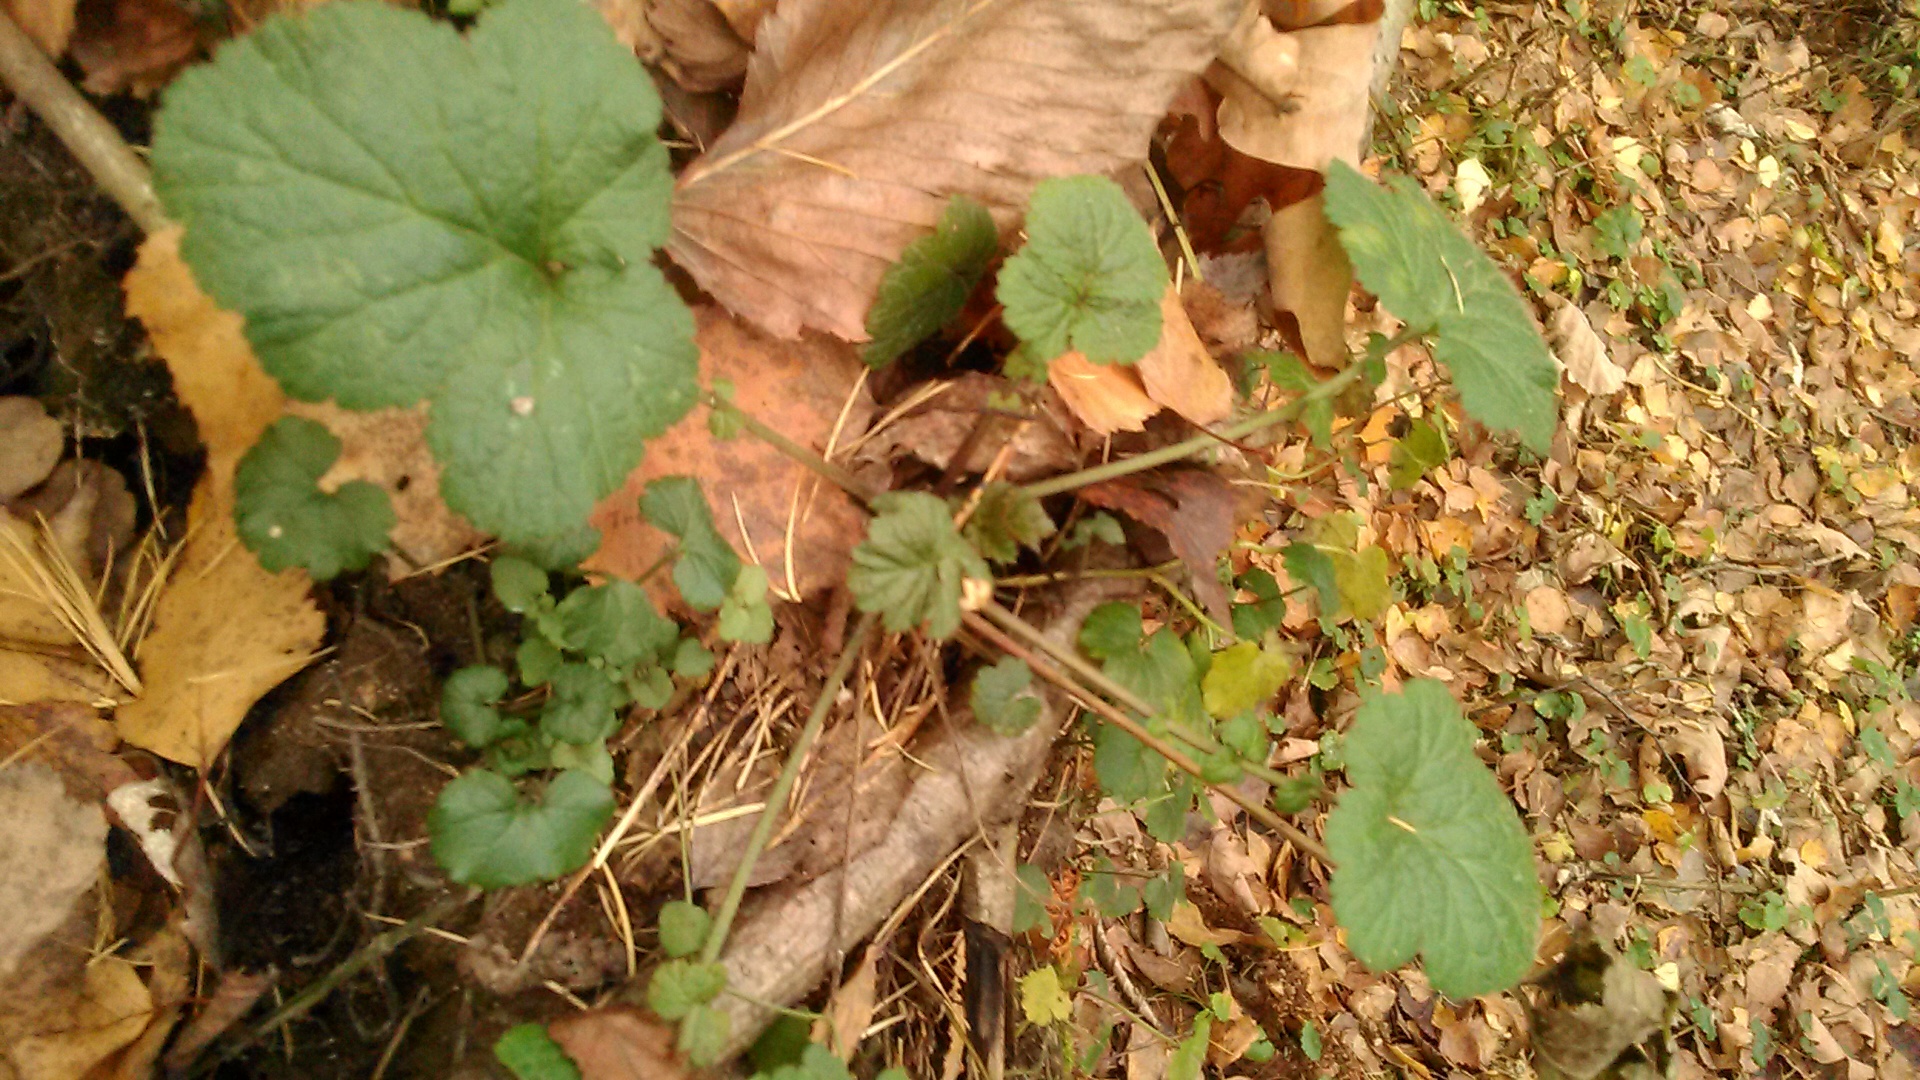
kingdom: Plantae
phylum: Tracheophyta
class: Magnoliopsida
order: Rosales
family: Rosaceae
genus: Geum
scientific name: Geum
